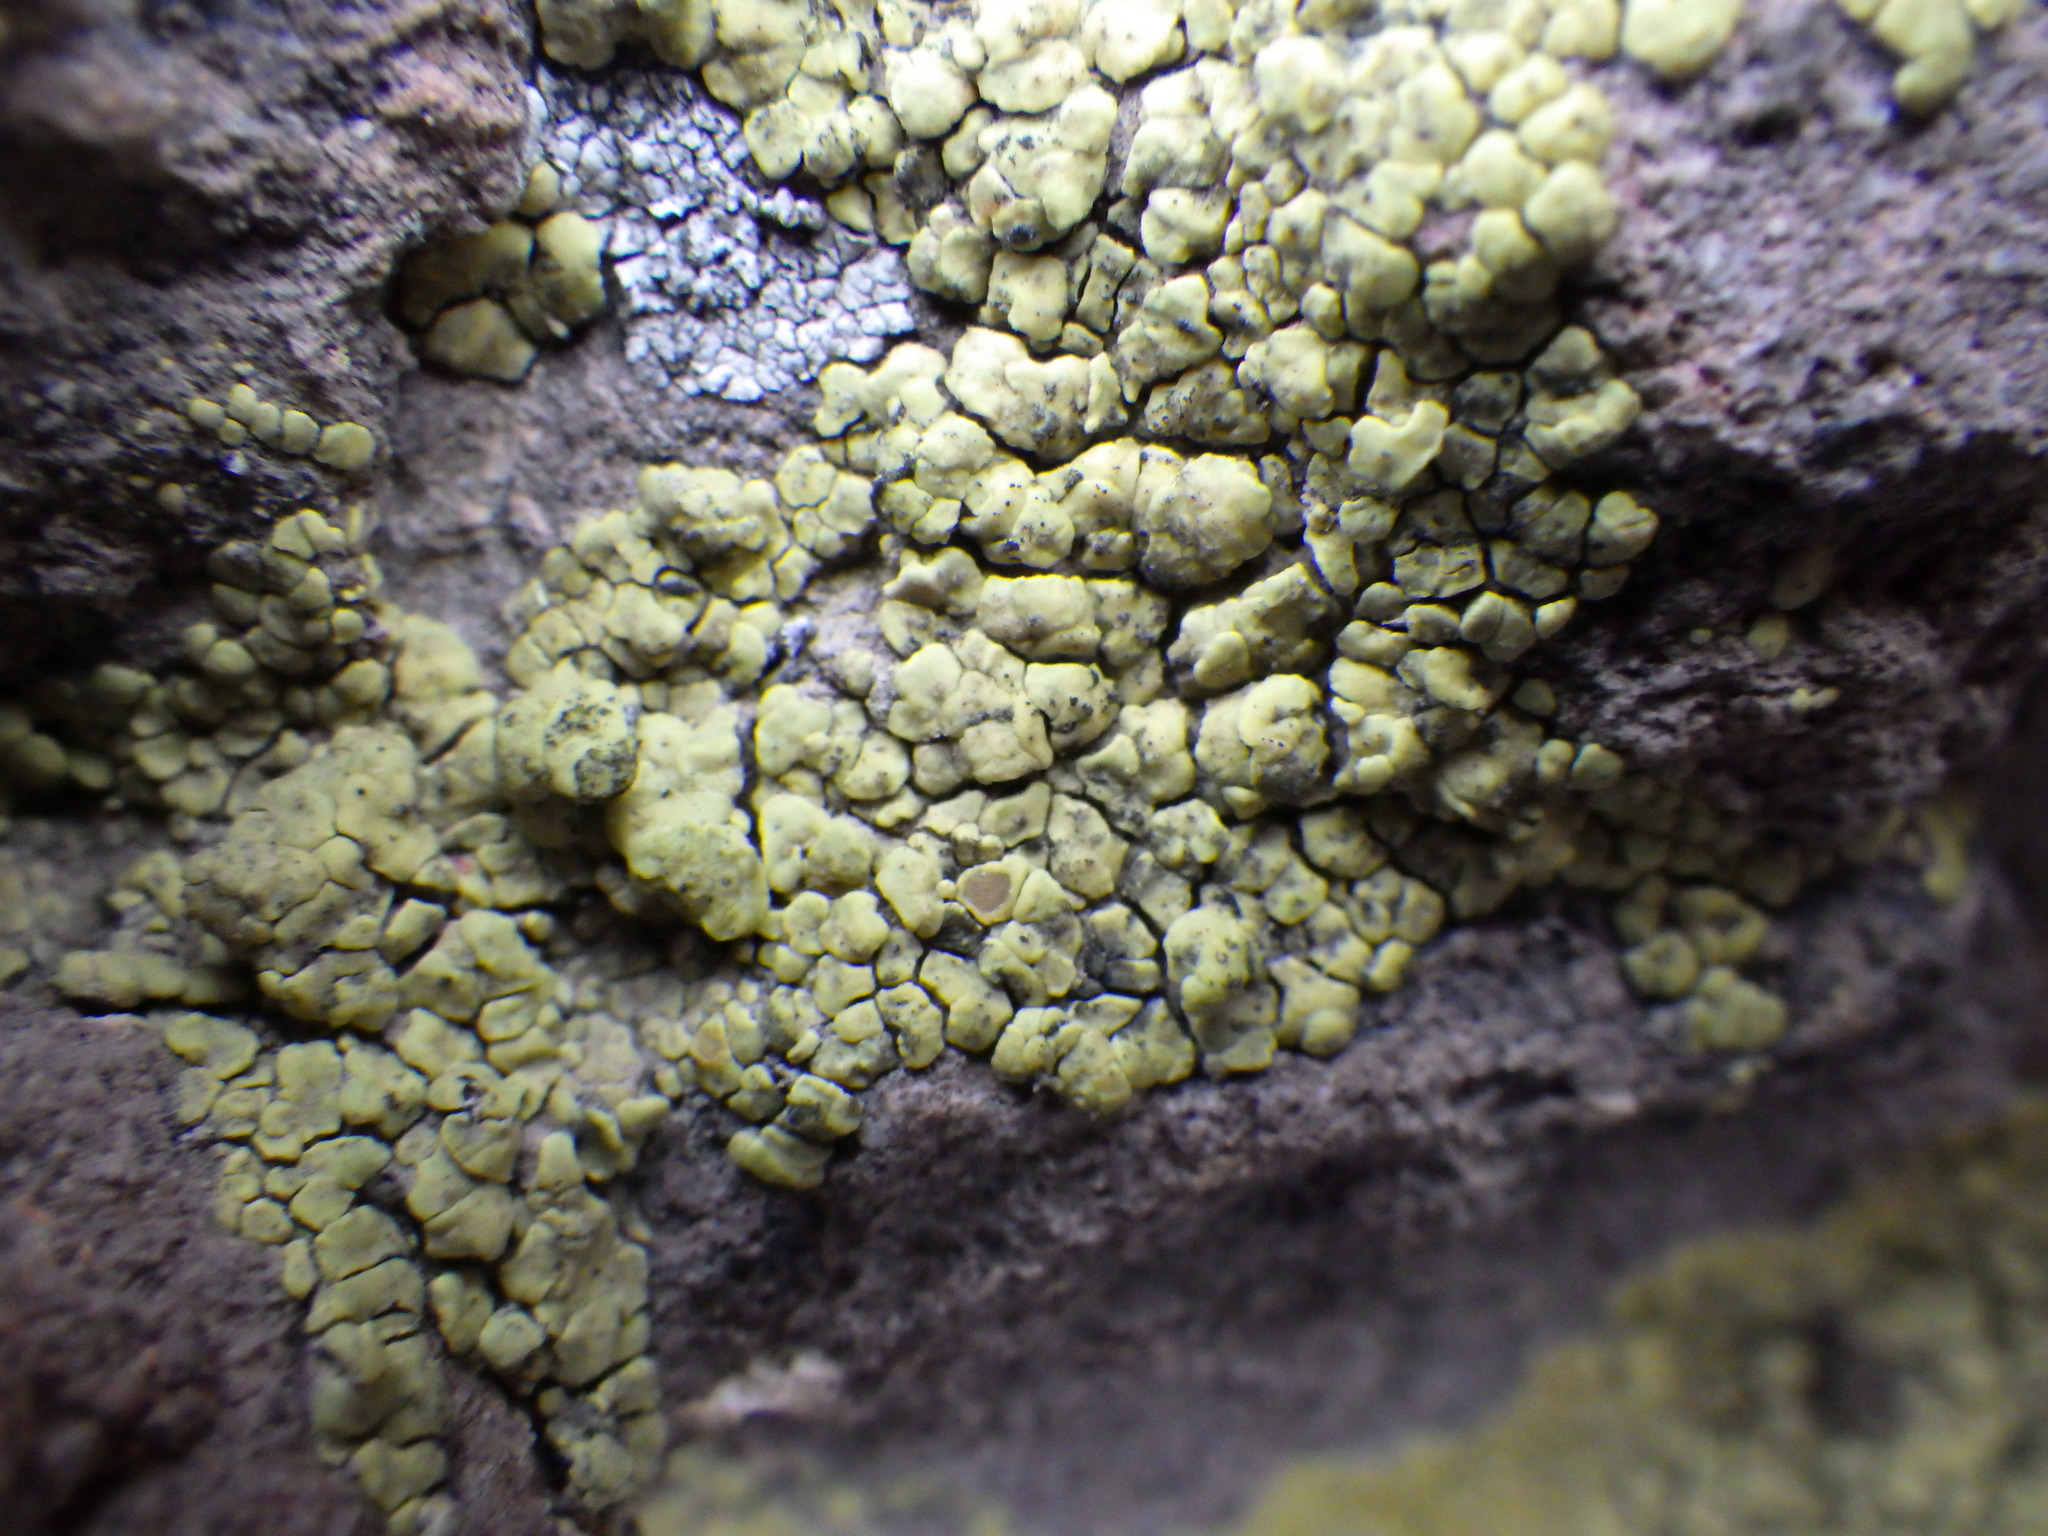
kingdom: Fungi
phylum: Ascomycota
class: Lecanoromycetes
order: Acarosporales
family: Acarosporaceae
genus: Acarospora
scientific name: Acarospora socialis
